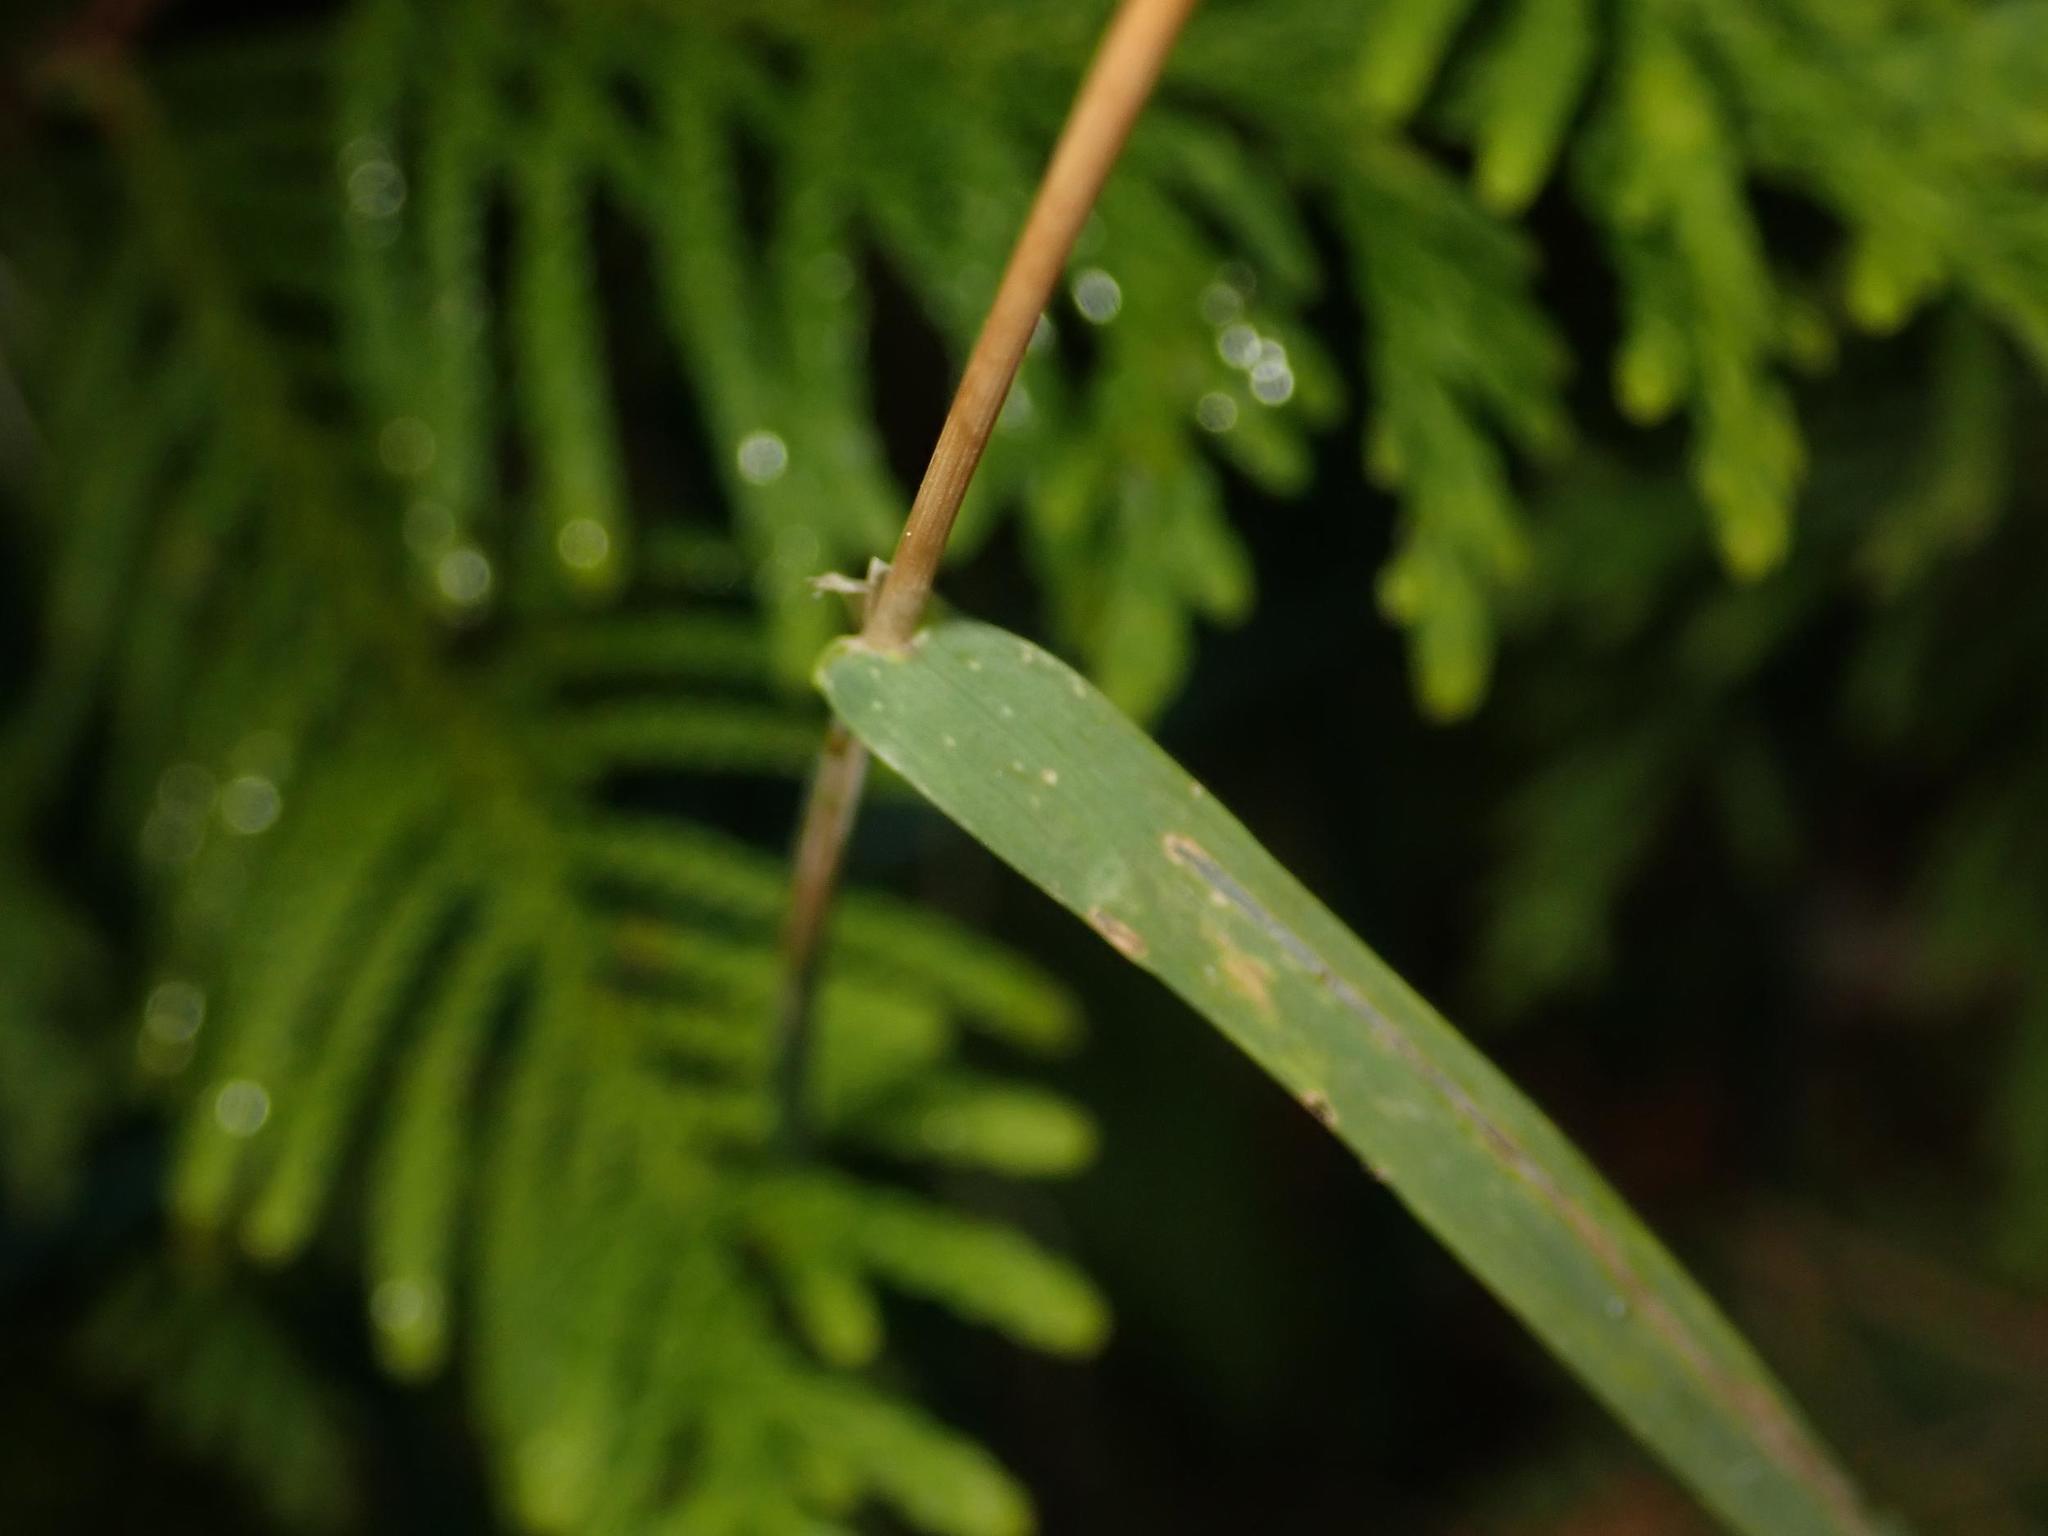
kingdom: Plantae
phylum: Tracheophyta
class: Liliopsida
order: Poales
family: Poaceae
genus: Dactylis
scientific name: Dactylis glomerata
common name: Orchardgrass
